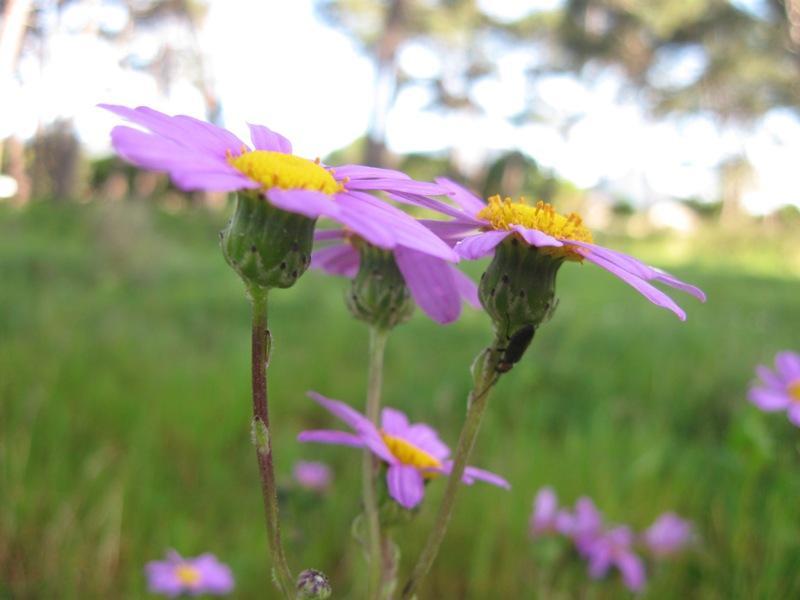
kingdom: Plantae
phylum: Tracheophyta
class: Magnoliopsida
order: Asterales
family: Asteraceae
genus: Senecio
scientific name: Senecio elegans
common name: Purple groundsel
